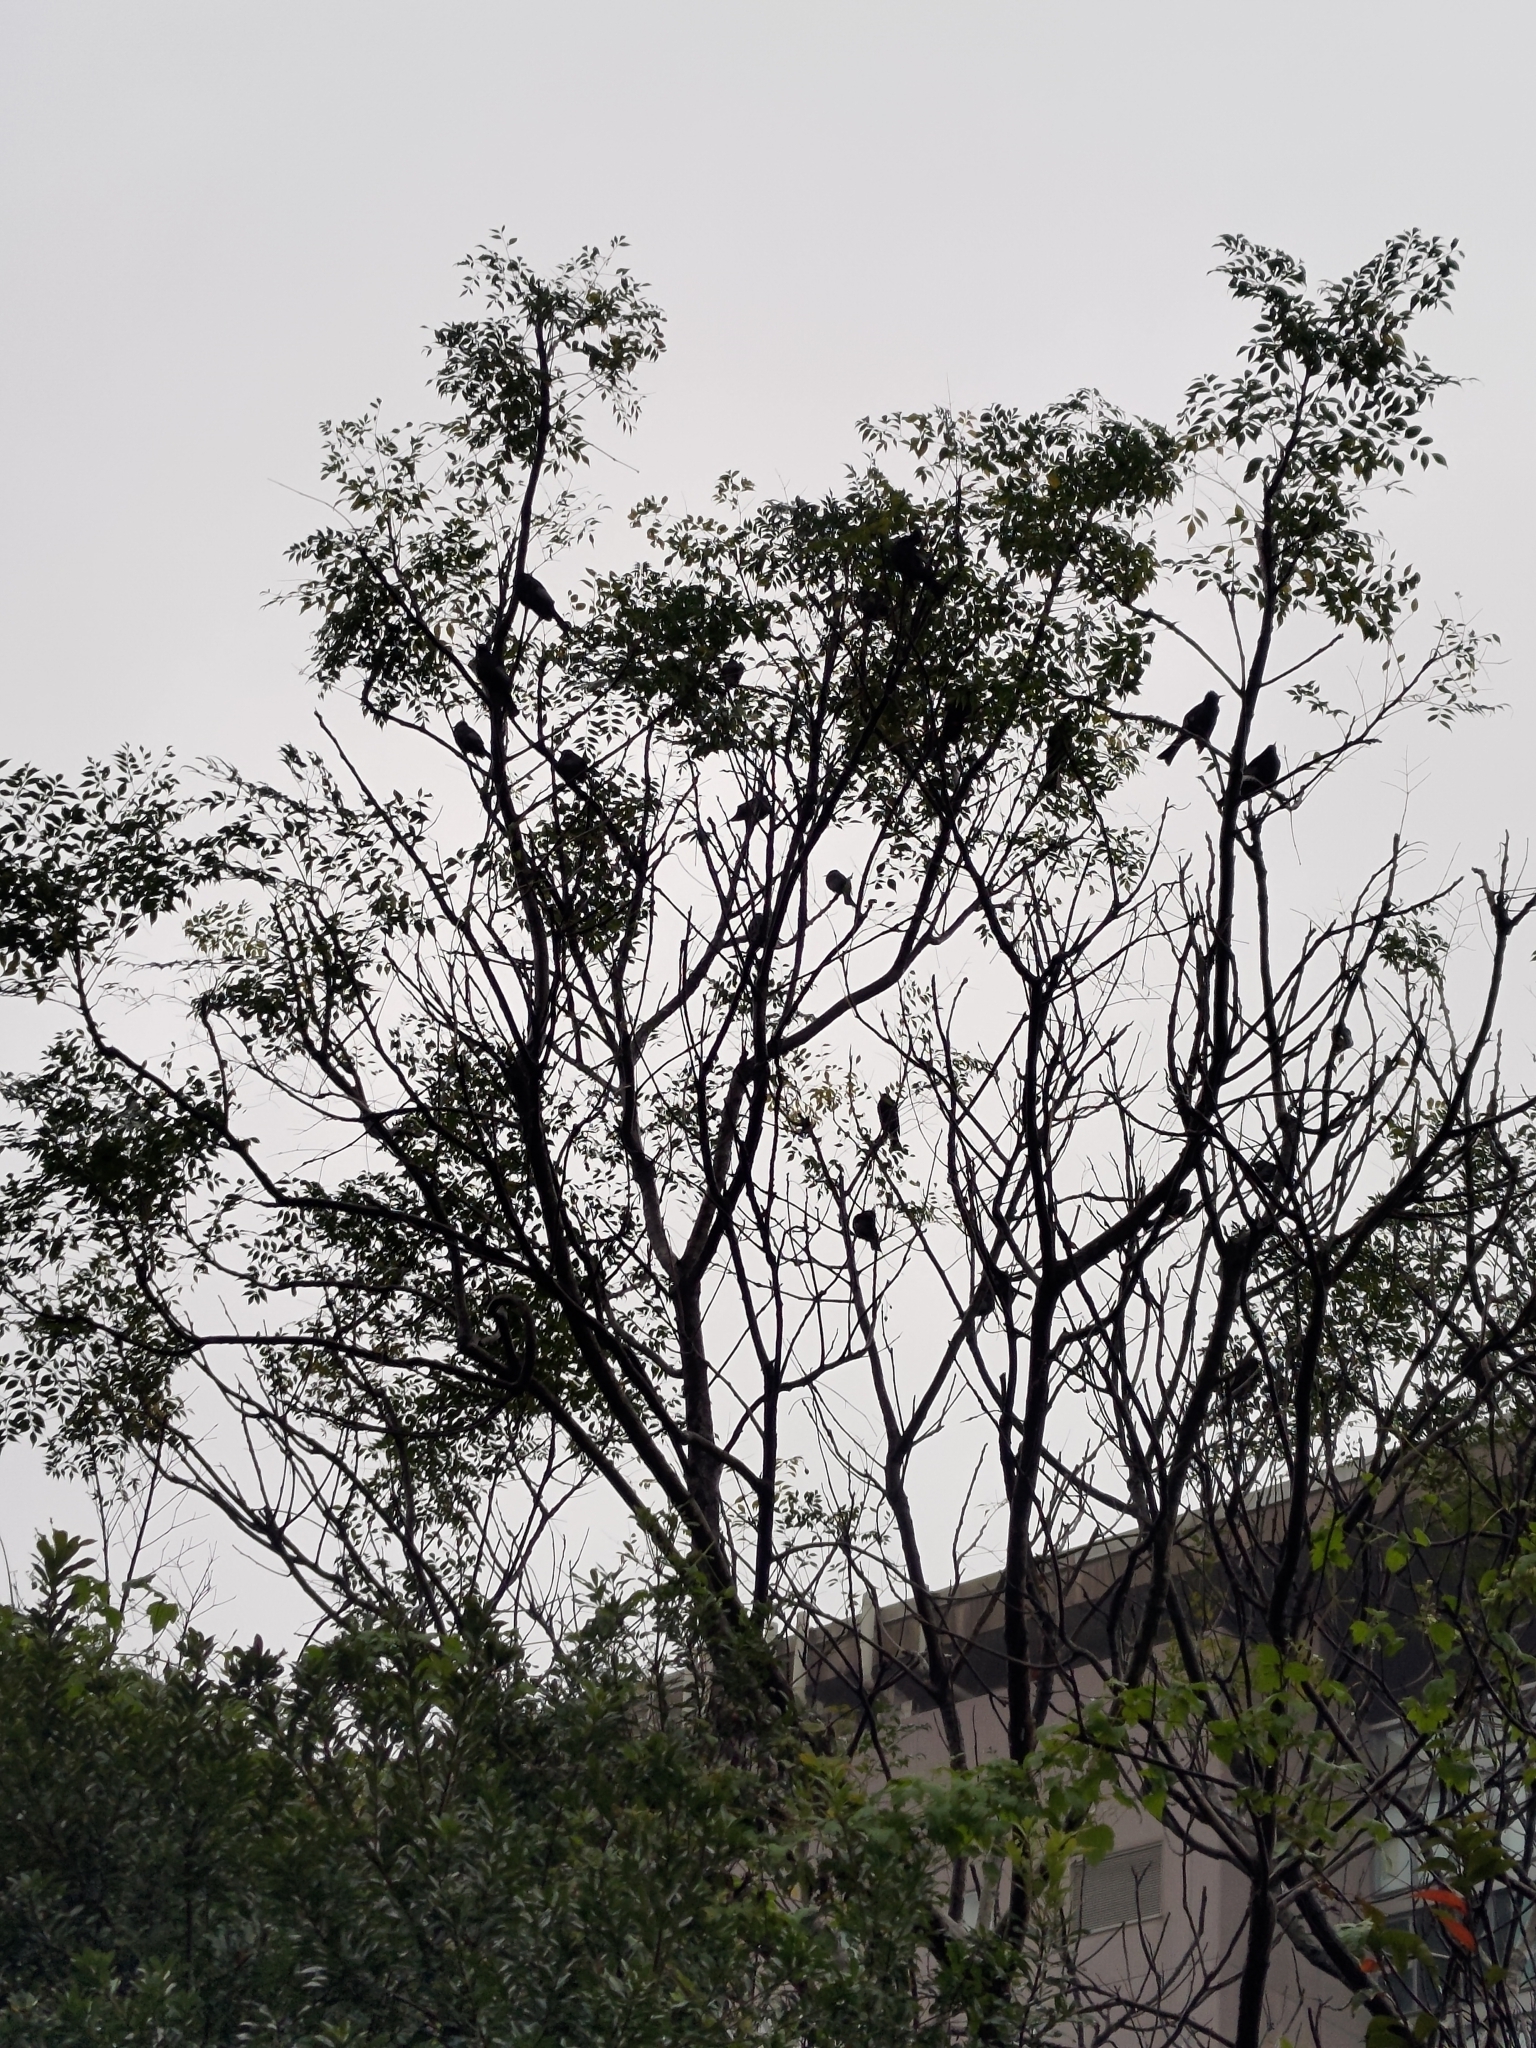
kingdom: Animalia
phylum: Chordata
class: Aves
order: Passeriformes
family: Pycnonotidae
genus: Hypsipetes
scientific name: Hypsipetes leucocephalus
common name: Black bulbul
